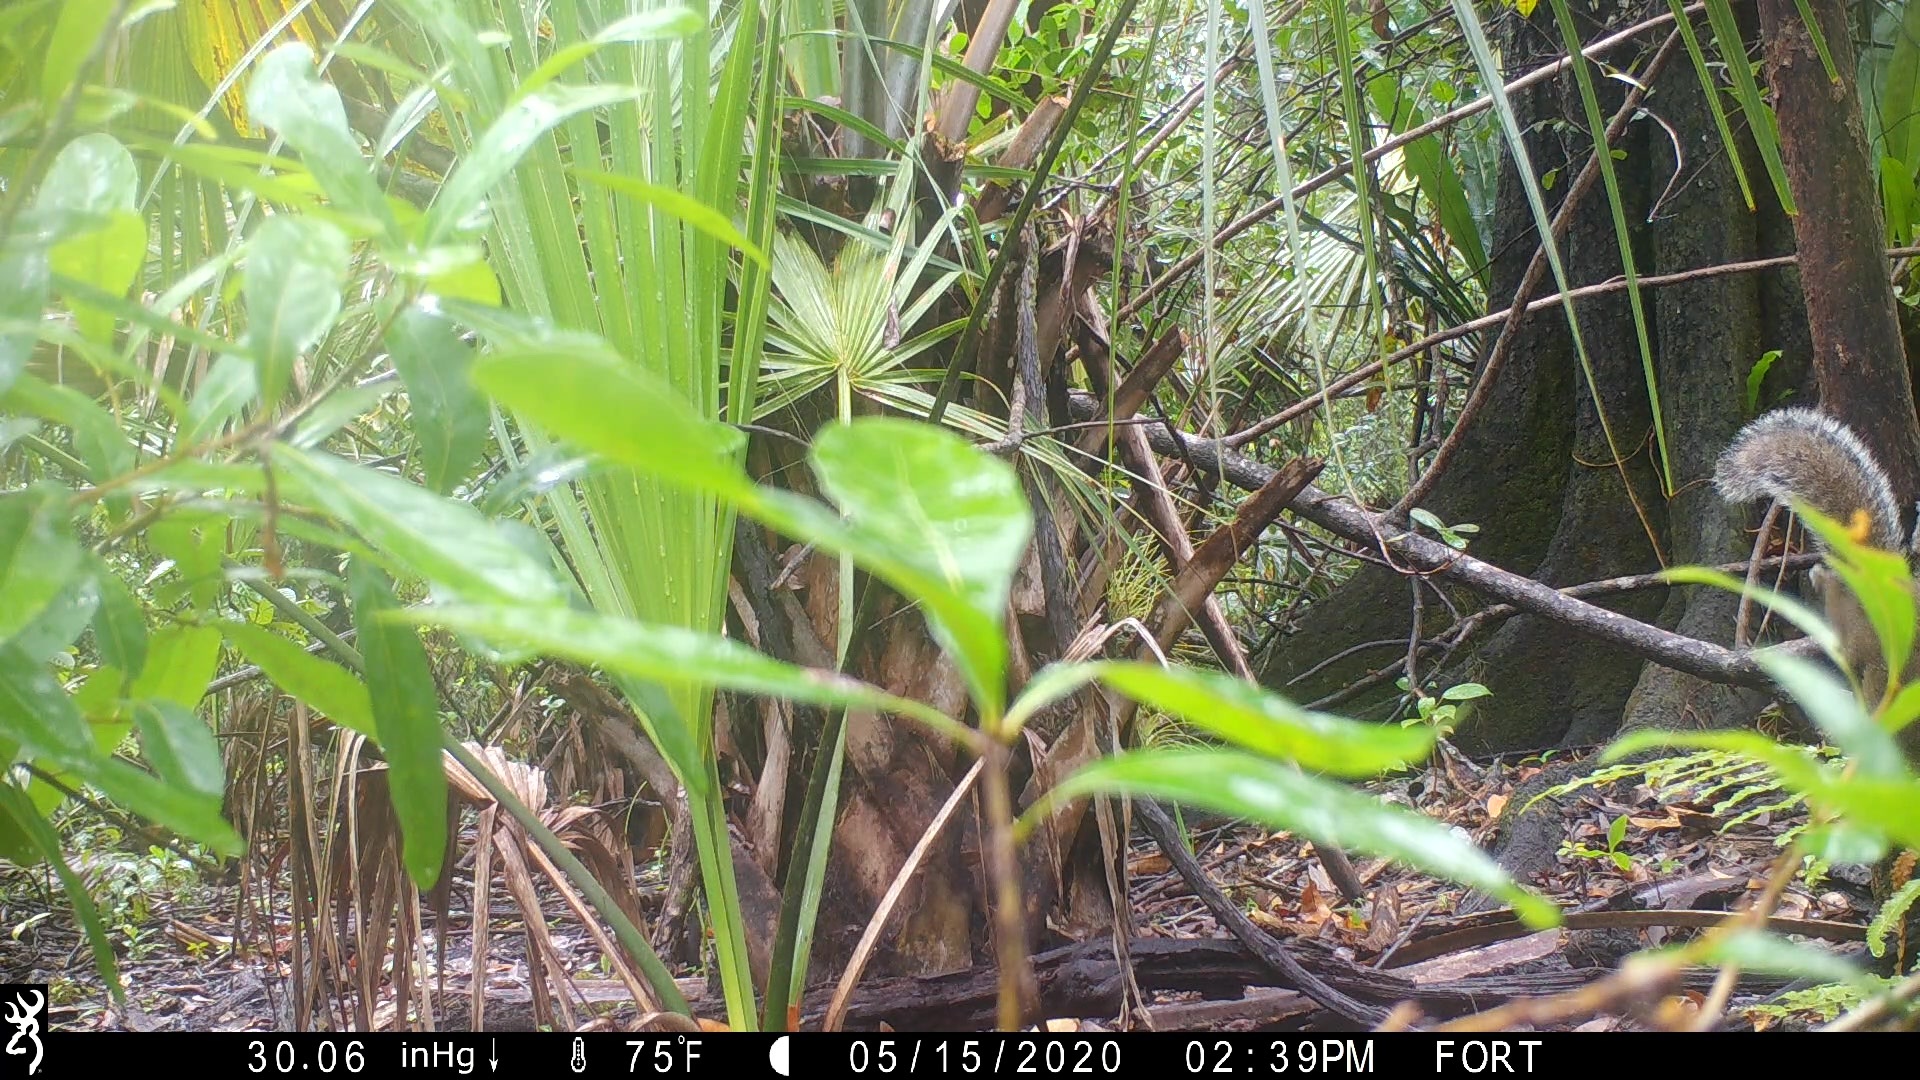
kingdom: Animalia
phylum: Chordata
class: Mammalia
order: Rodentia
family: Sciuridae
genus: Sciurus
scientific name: Sciurus carolinensis
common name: Eastern gray squirrel
